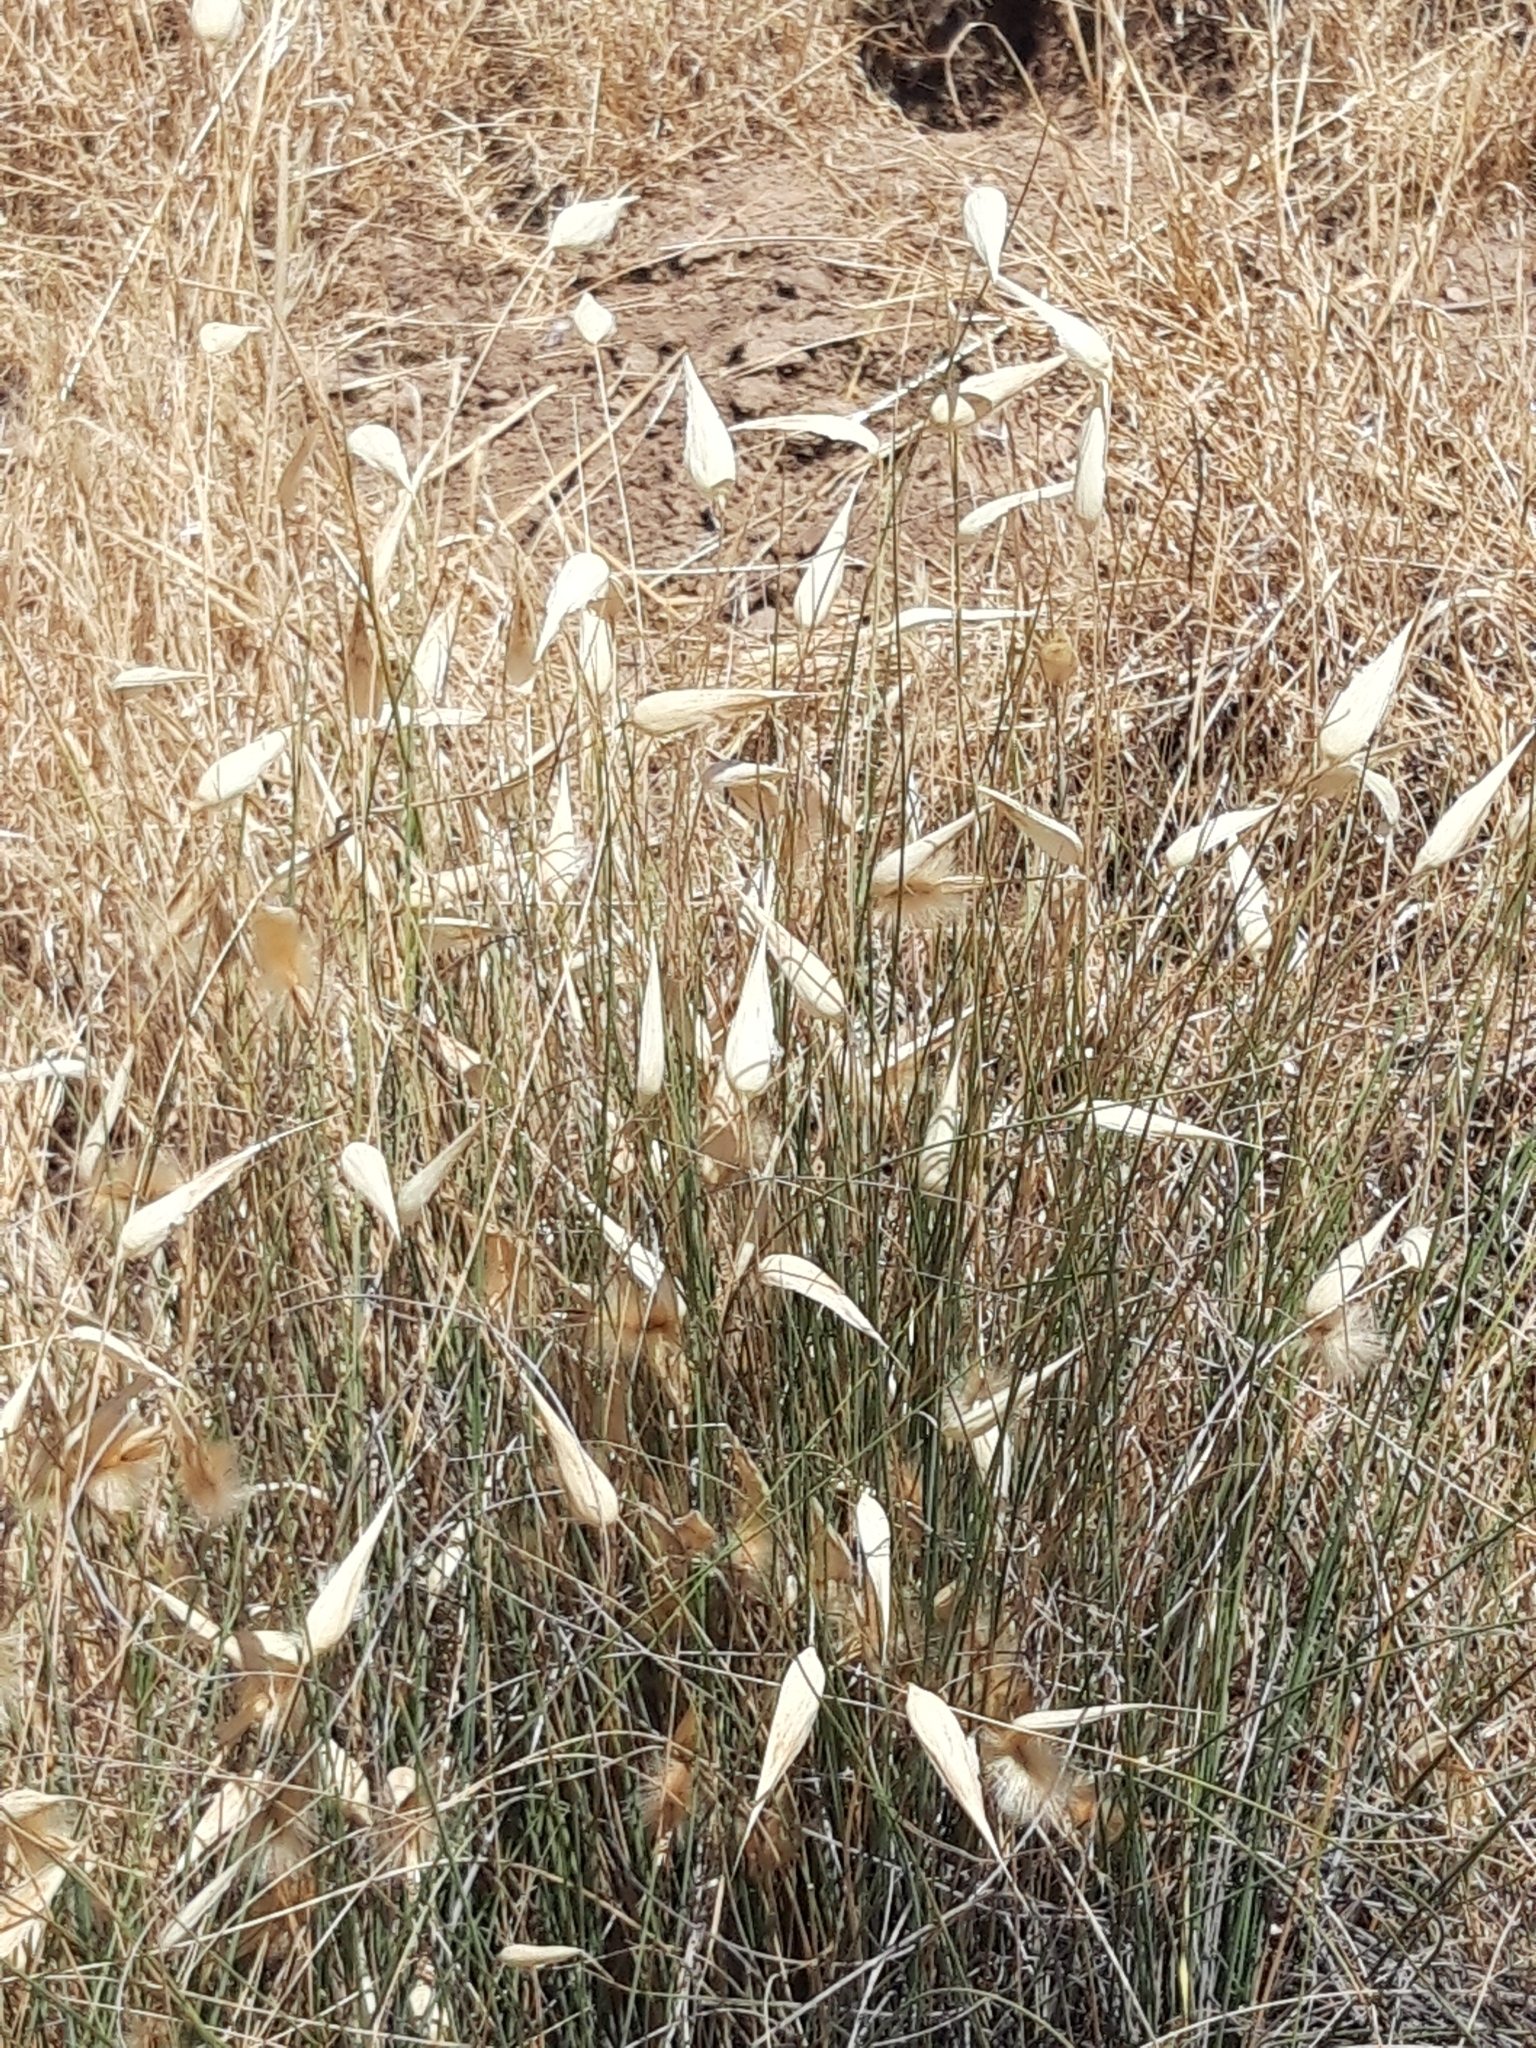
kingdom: Plantae
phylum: Tracheophyta
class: Liliopsida
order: Poales
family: Poaceae
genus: Lygeum
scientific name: Lygeum spartum
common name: Albardine
